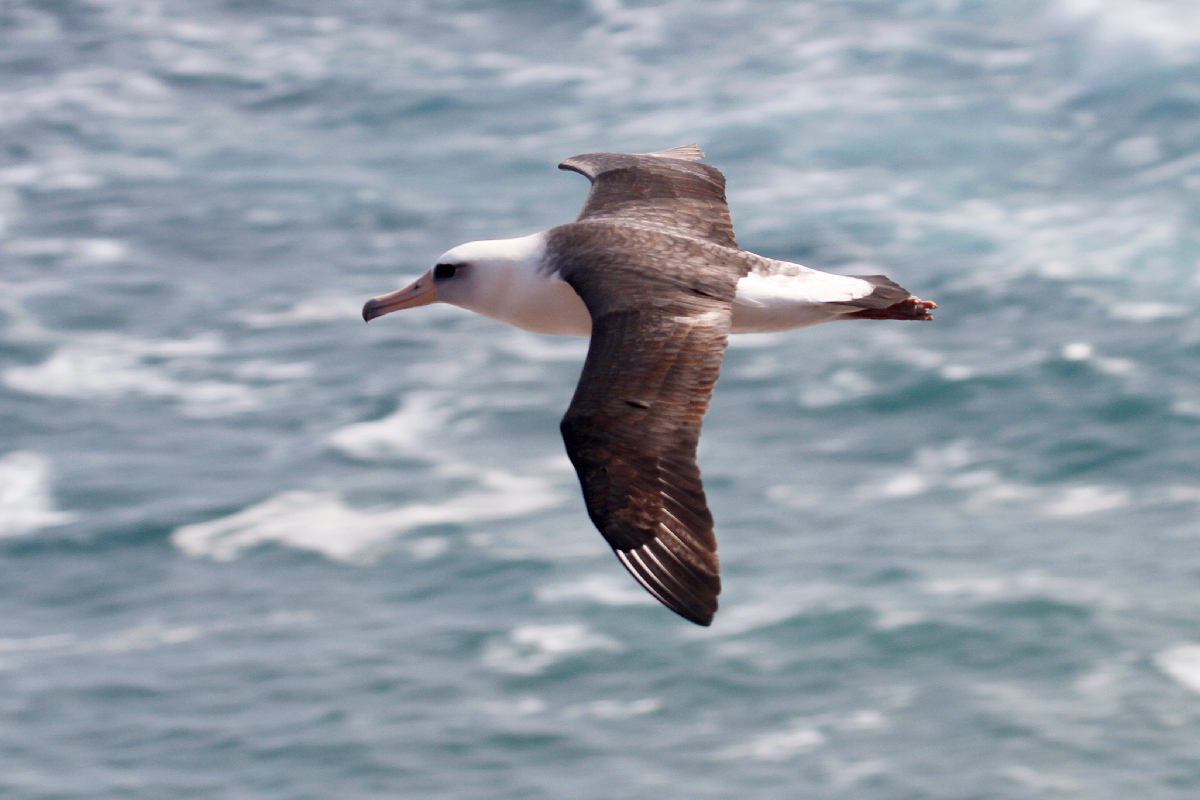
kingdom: Animalia
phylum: Chordata
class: Aves
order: Procellariiformes
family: Diomedeidae
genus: Phoebastria
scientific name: Phoebastria immutabilis
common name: Laysan albatross
